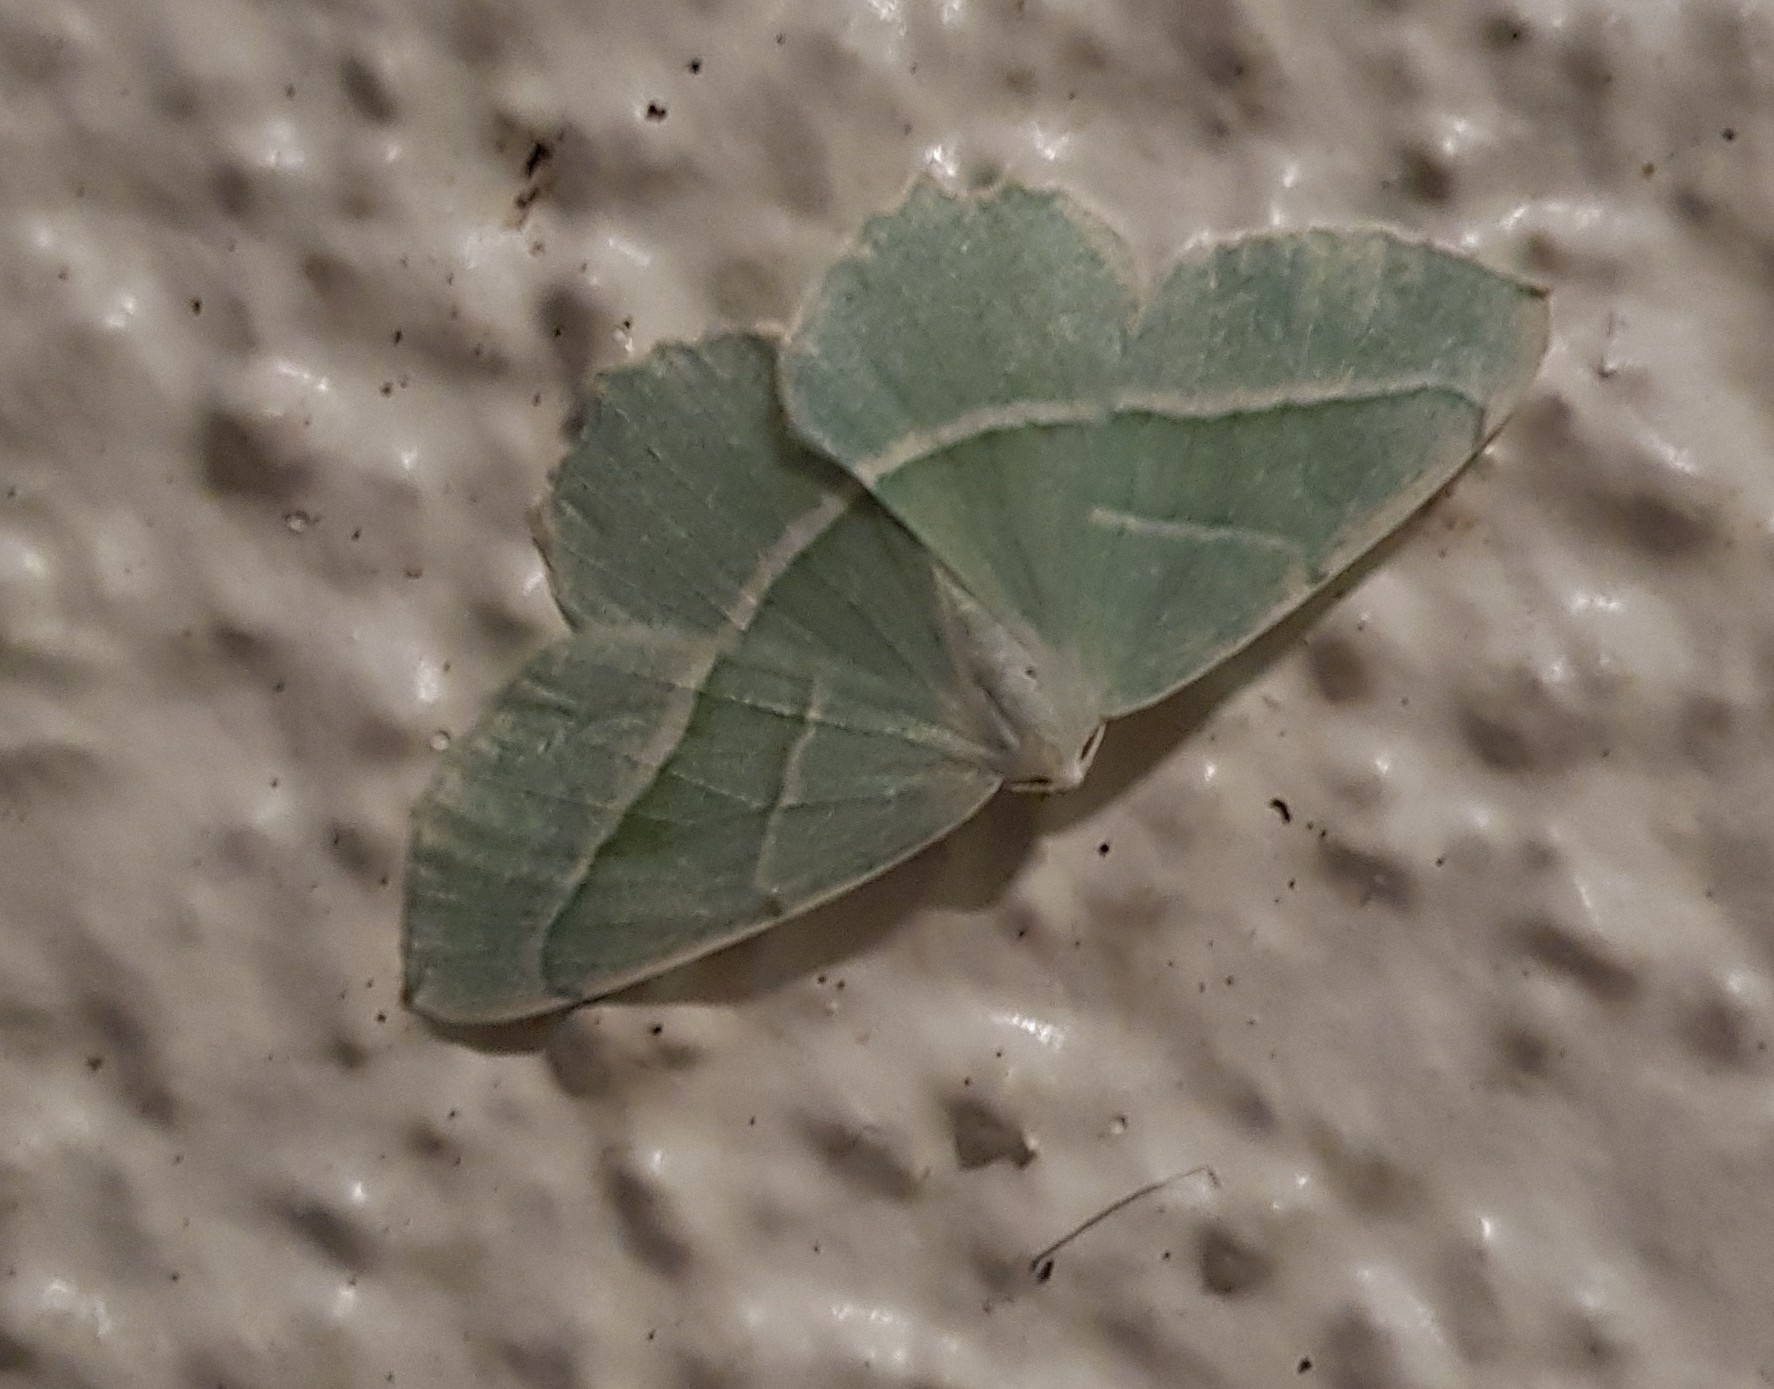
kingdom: Animalia
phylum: Arthropoda
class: Insecta
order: Lepidoptera
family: Geometridae
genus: Campaea
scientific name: Campaea margaritaria
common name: Light emerald
